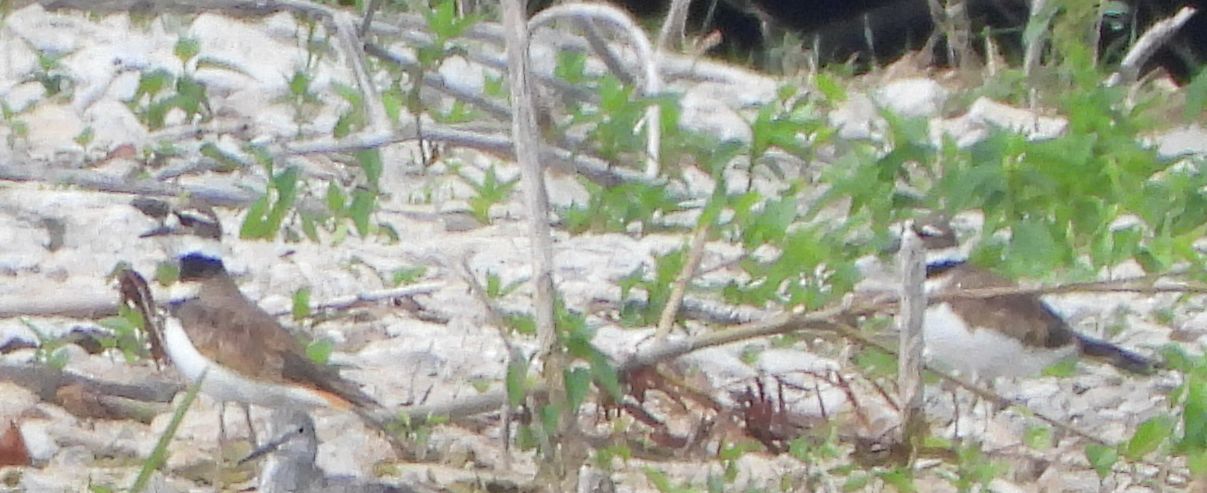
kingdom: Animalia
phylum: Chordata
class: Aves
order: Charadriiformes
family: Charadriidae
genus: Charadrius
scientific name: Charadrius vociferus
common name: Killdeer
